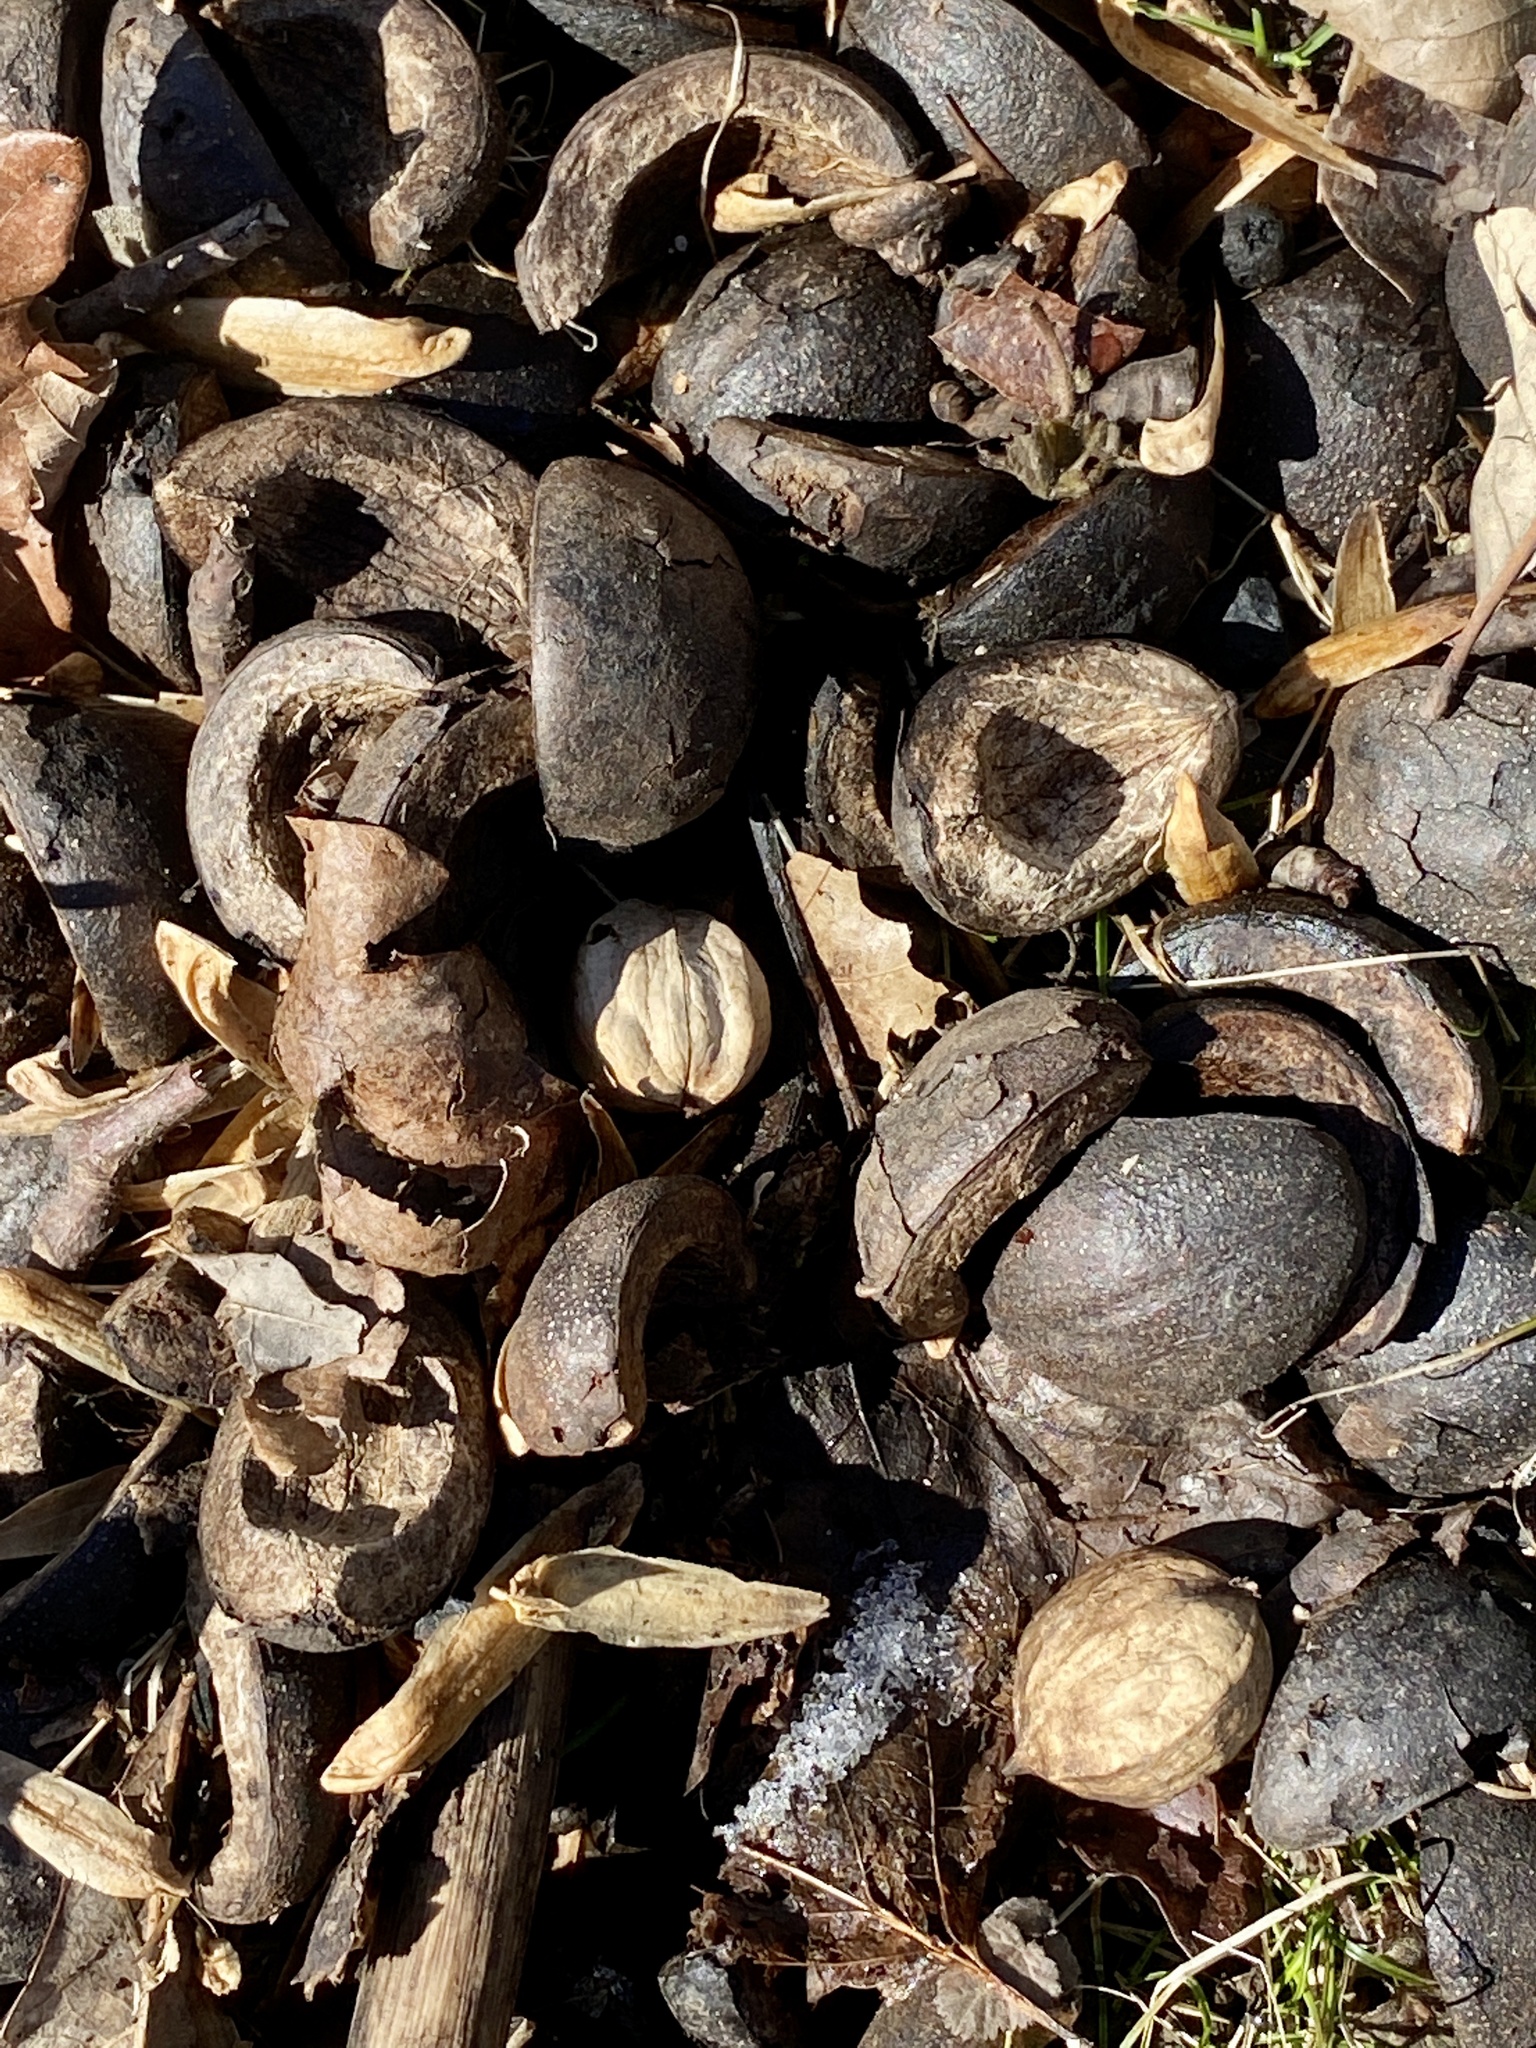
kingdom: Plantae
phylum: Tracheophyta
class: Magnoliopsida
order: Fagales
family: Juglandaceae
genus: Carya
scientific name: Carya ovata
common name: Shagbark hickory
